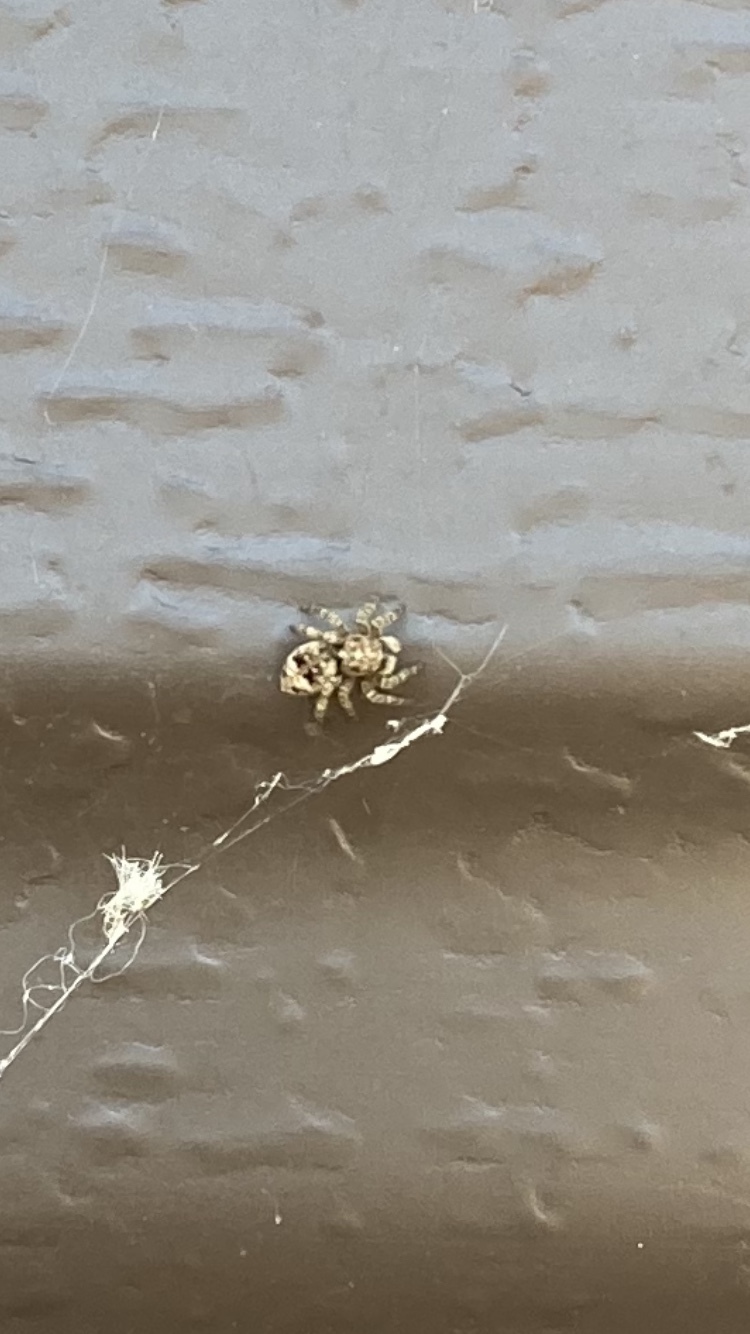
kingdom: Animalia
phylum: Arthropoda
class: Arachnida
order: Araneae
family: Salticidae
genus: Attulus
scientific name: Attulus fasciger
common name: Asiatic wall jumping spider
